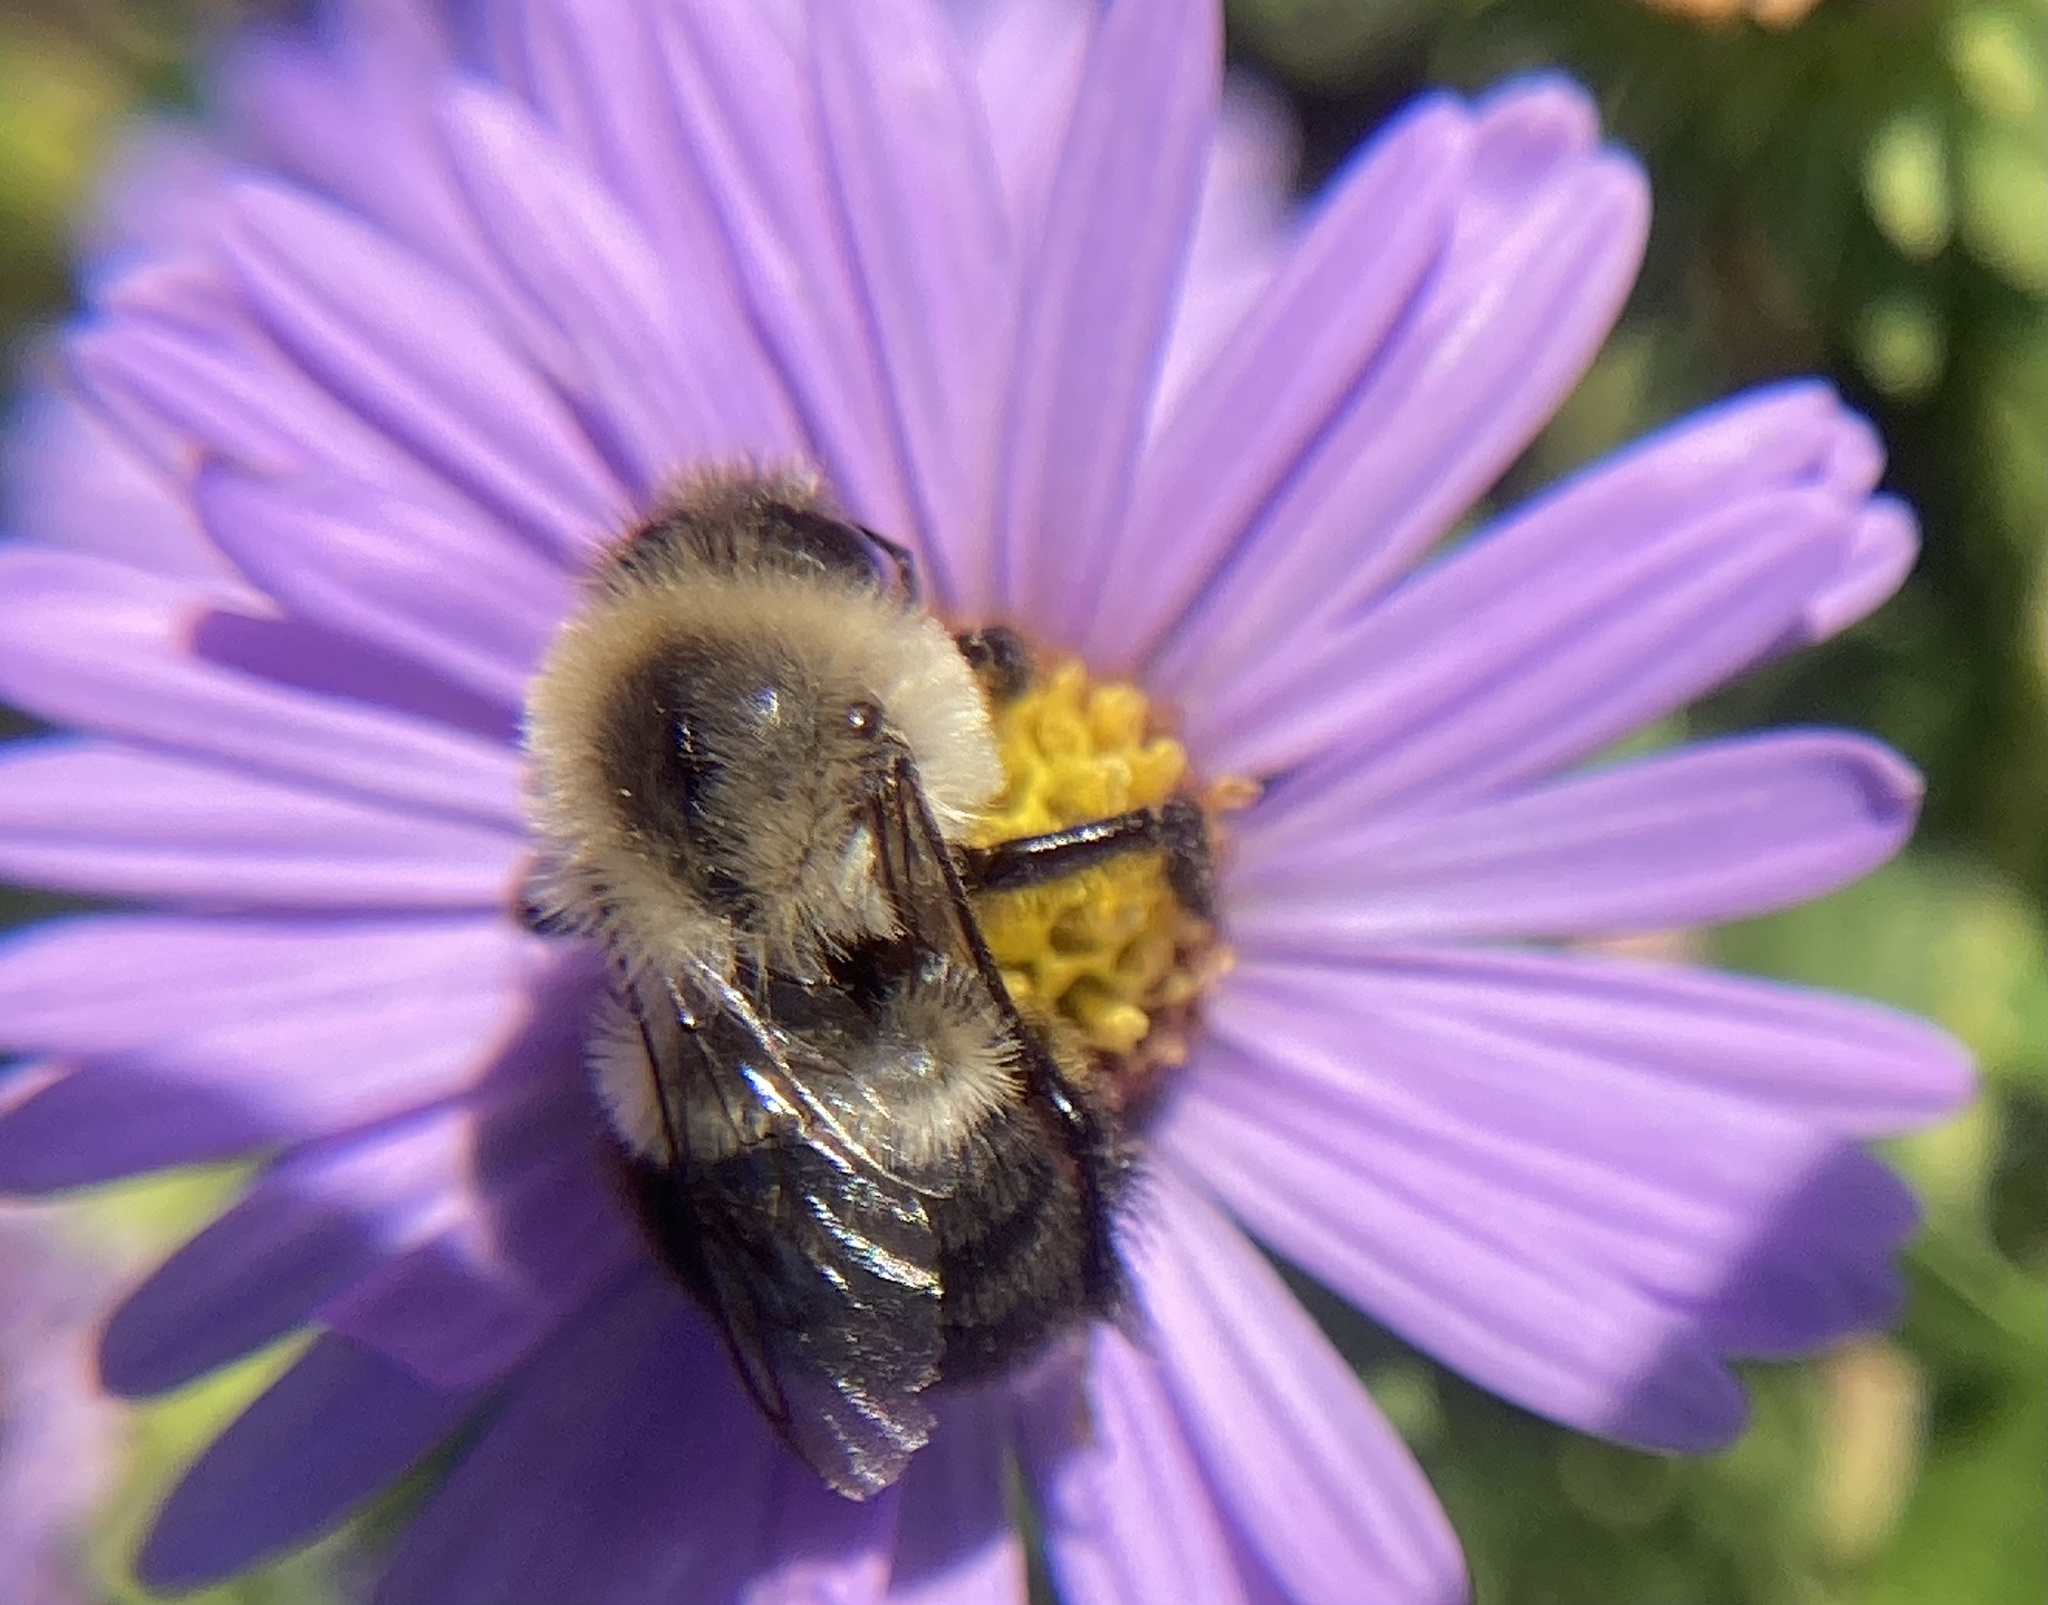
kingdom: Animalia
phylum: Arthropoda
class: Insecta
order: Hymenoptera
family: Apidae
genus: Bombus
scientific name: Bombus impatiens
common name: Common eastern bumble bee
